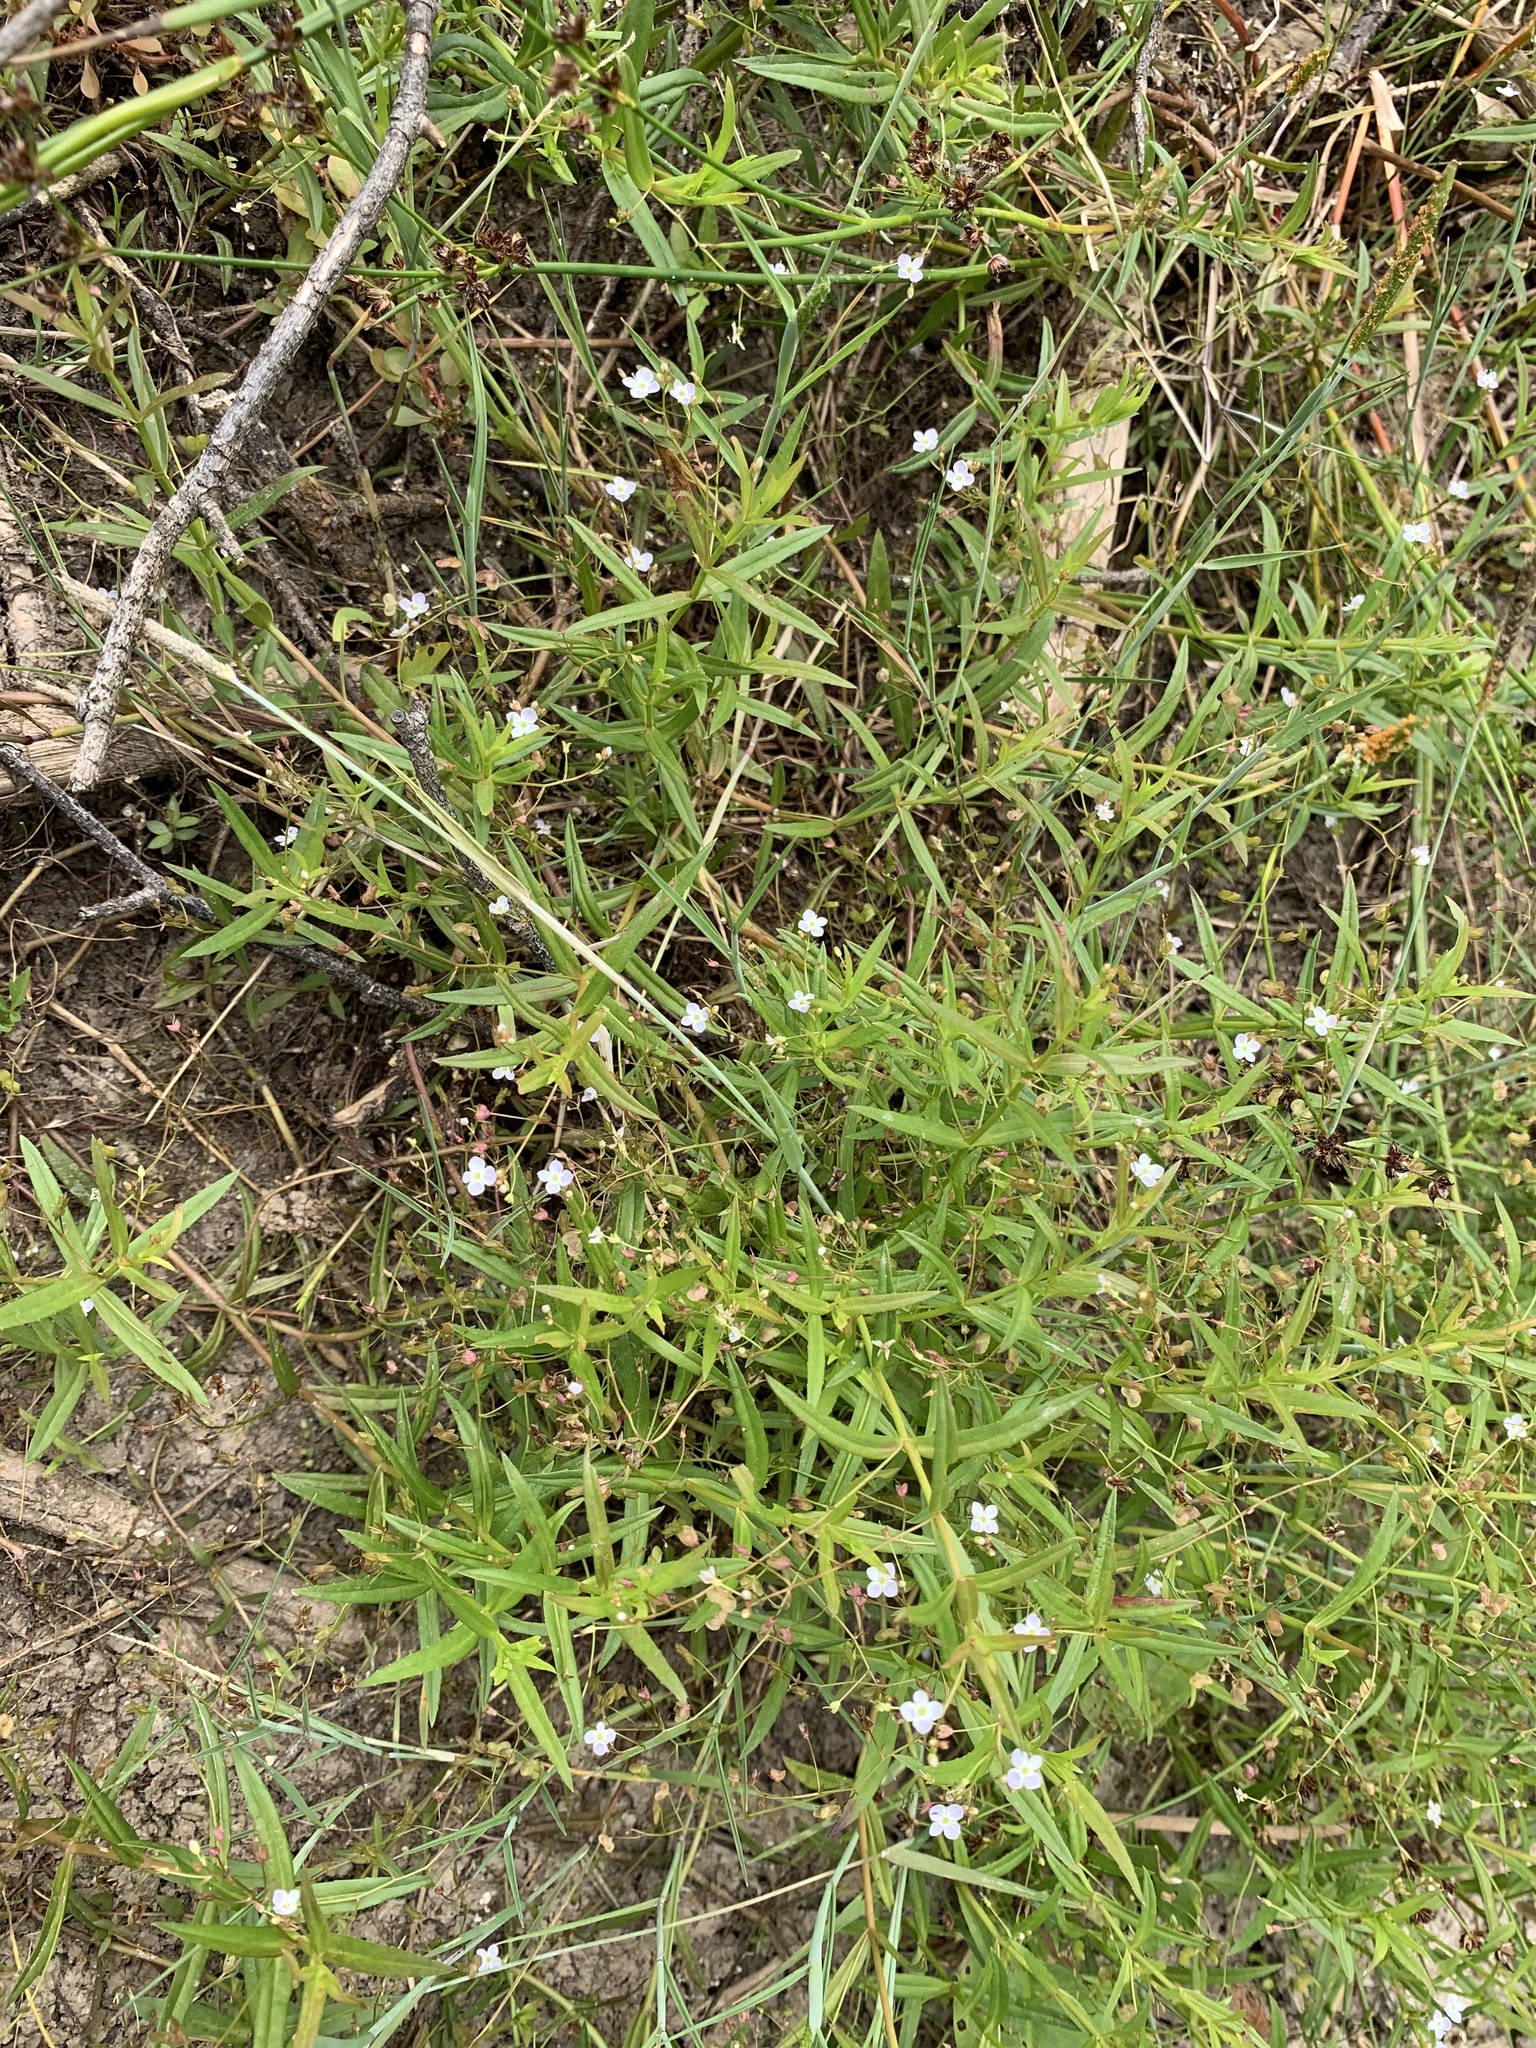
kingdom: Plantae
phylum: Tracheophyta
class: Magnoliopsida
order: Lamiales
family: Plantaginaceae
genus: Veronica
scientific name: Veronica scutellata
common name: Marsh speedwell
